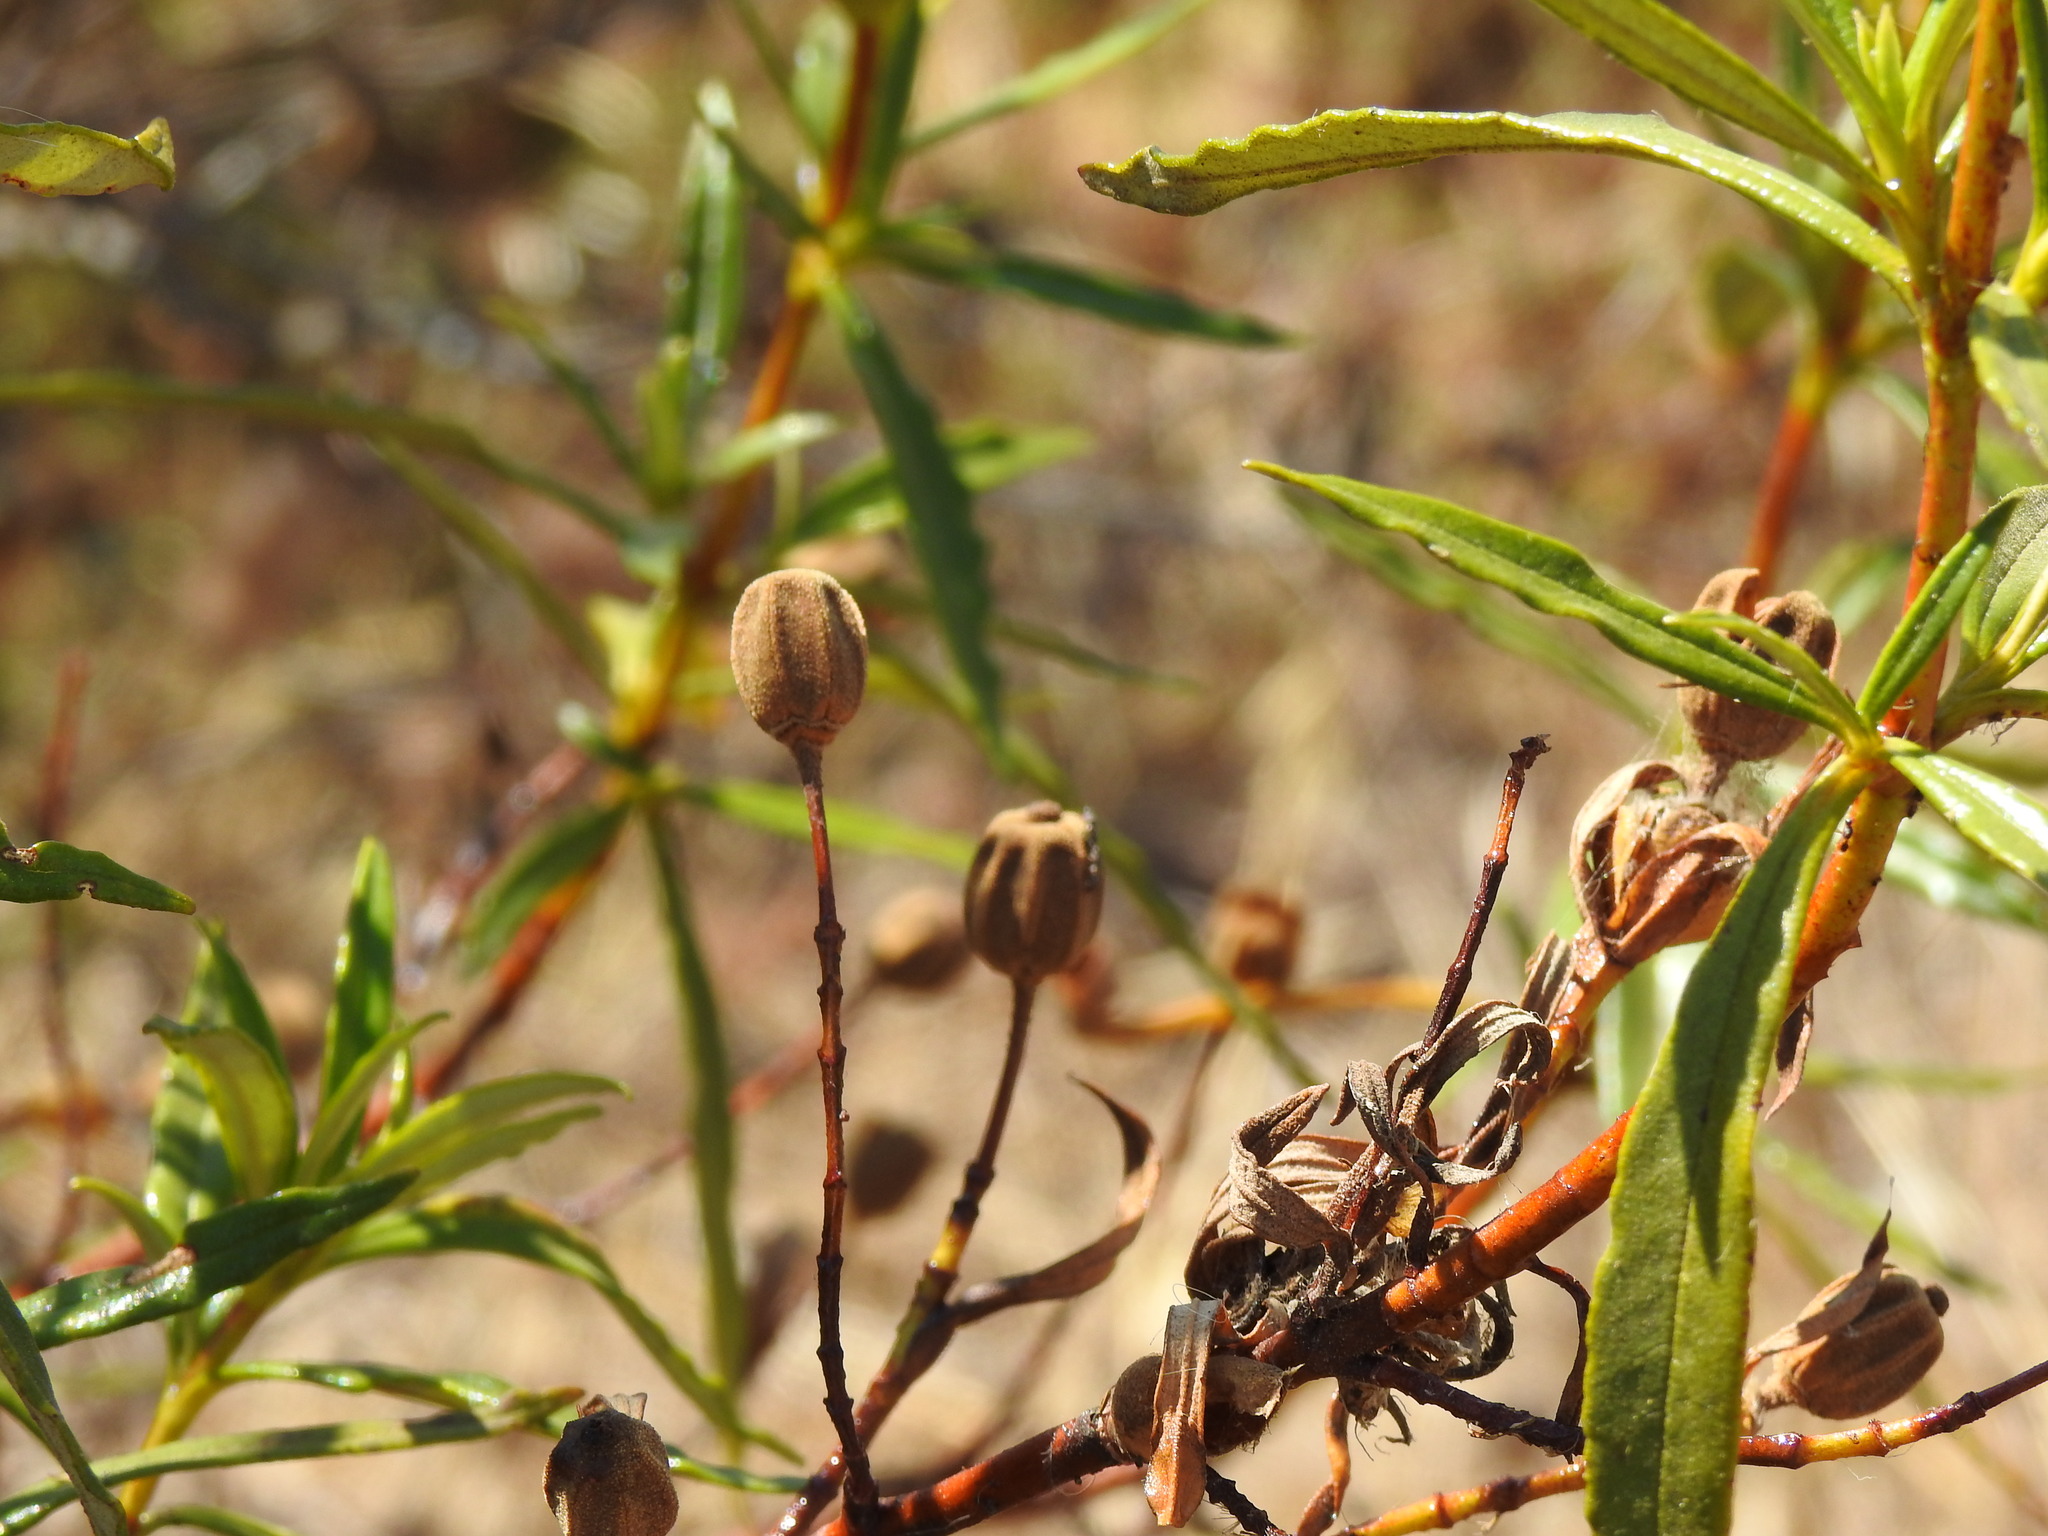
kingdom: Plantae
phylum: Tracheophyta
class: Magnoliopsida
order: Malvales
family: Cistaceae
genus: Cistus
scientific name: Cistus ladanifer
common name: Common gum cistus
